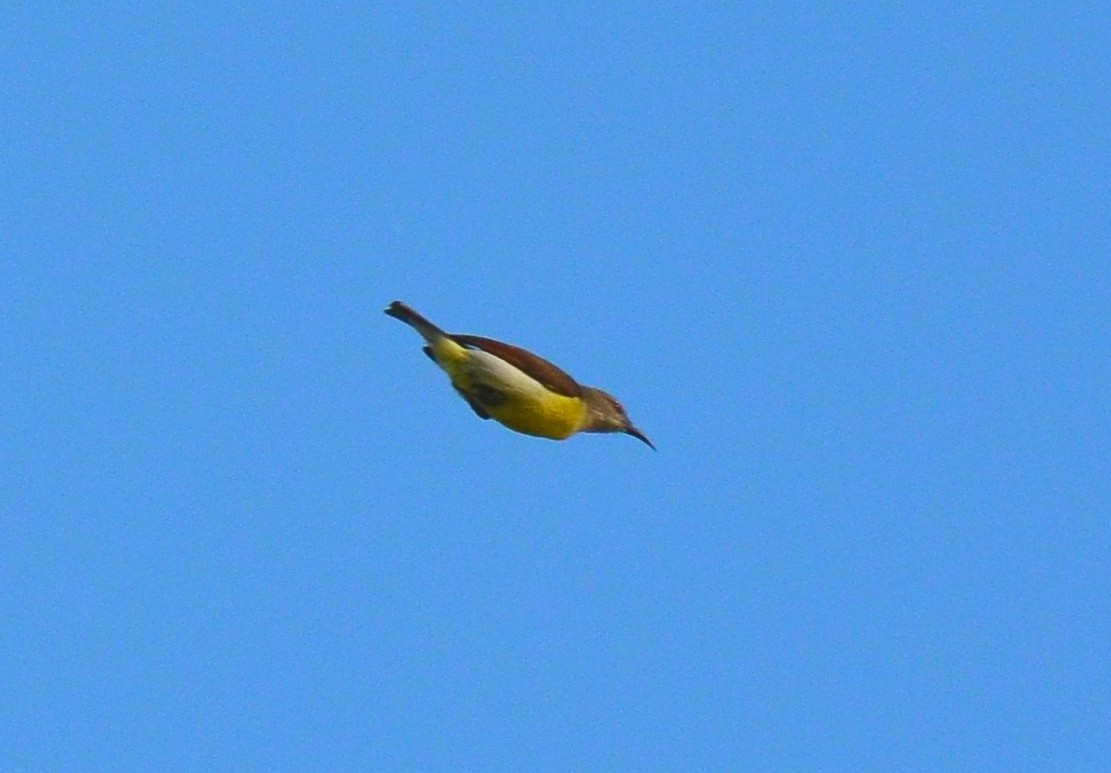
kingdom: Animalia
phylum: Chordata
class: Aves
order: Passeriformes
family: Nectariniidae
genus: Leptocoma
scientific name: Leptocoma zeylonica
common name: Purple-rumped sunbird
